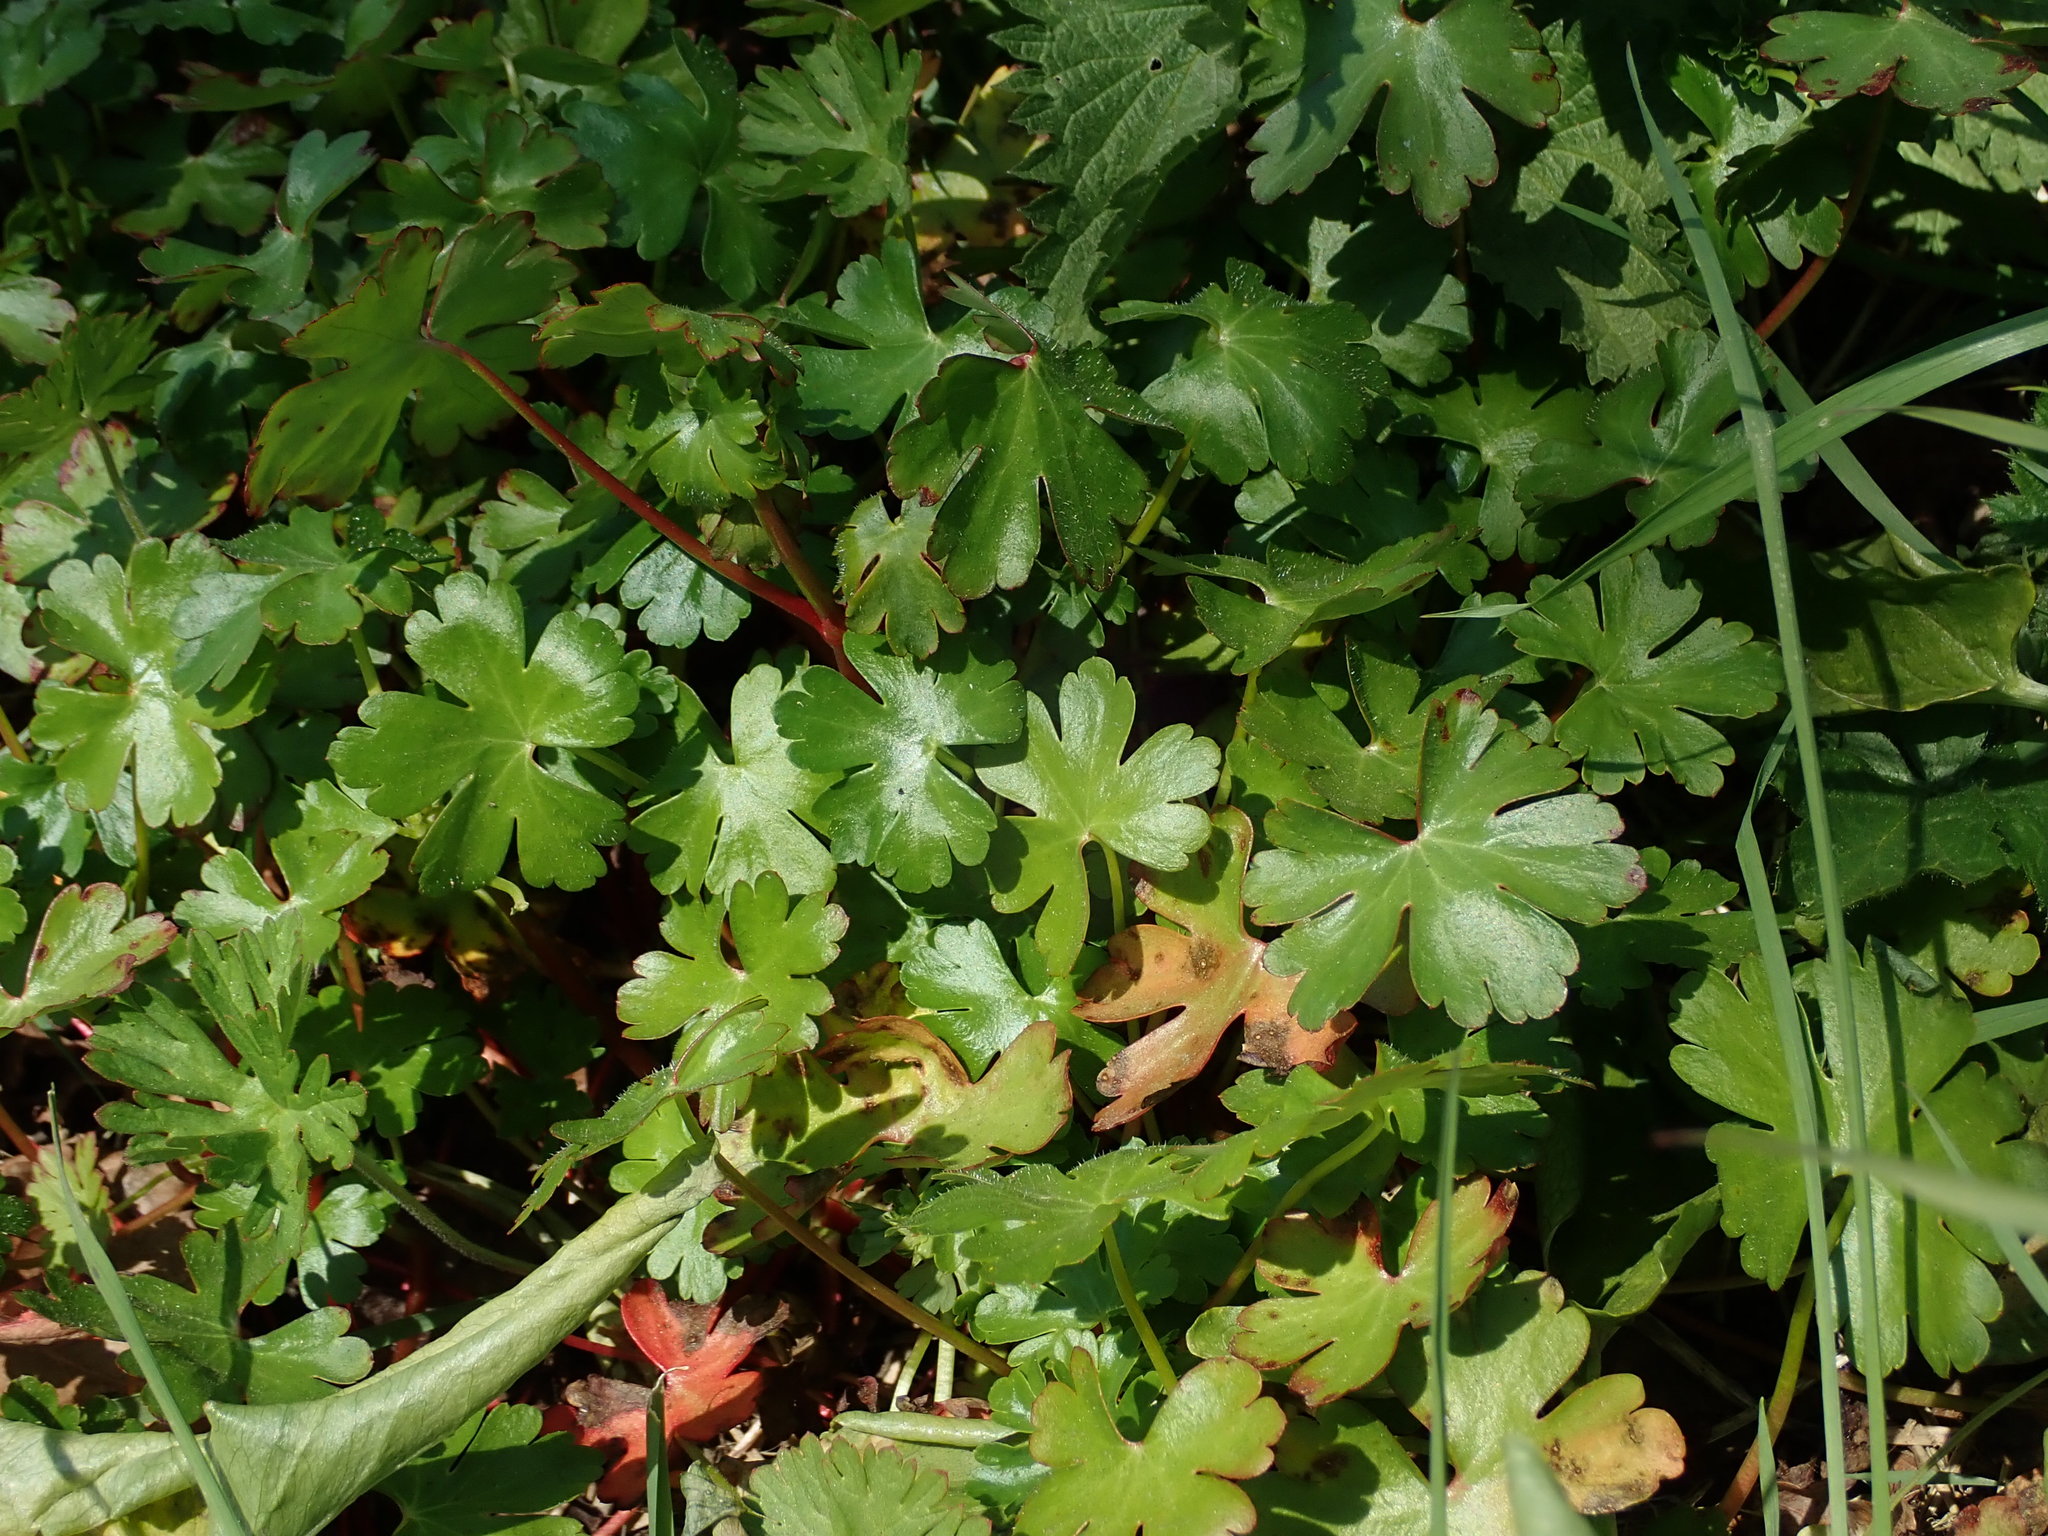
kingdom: Plantae
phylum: Tracheophyta
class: Magnoliopsida
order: Geraniales
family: Geraniaceae
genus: Geranium
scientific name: Geranium lucidum
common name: Shining crane's-bill
